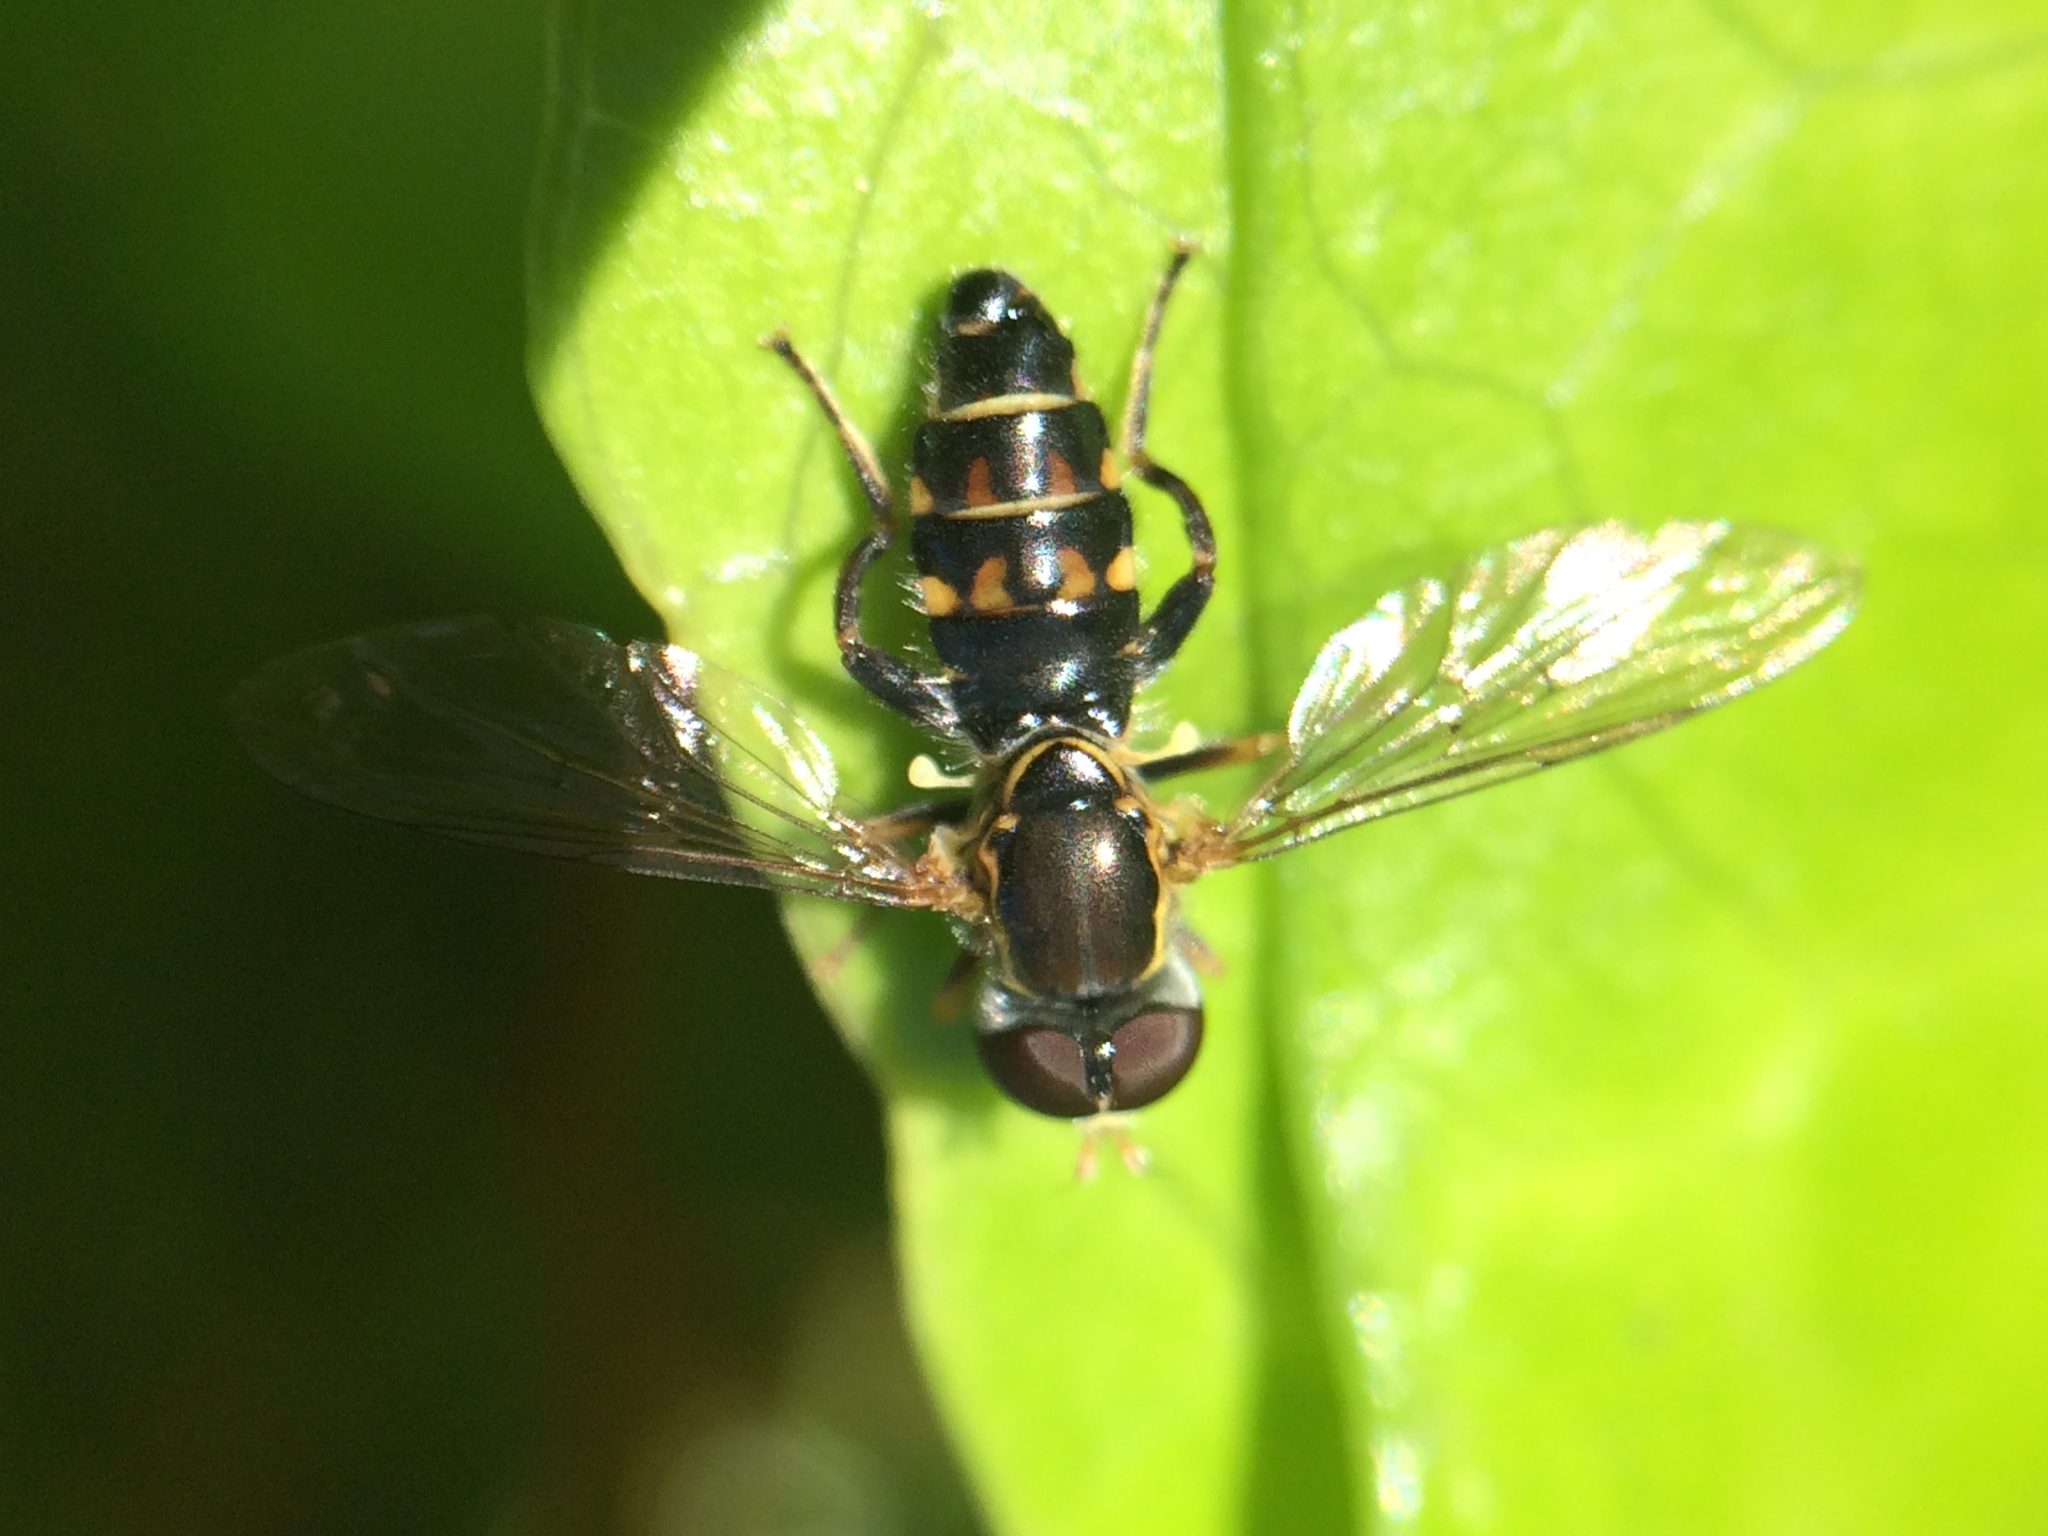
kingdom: Animalia
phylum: Arthropoda
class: Insecta
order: Diptera
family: Syrphidae
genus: Toxomerus
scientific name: Toxomerus occidentalis
